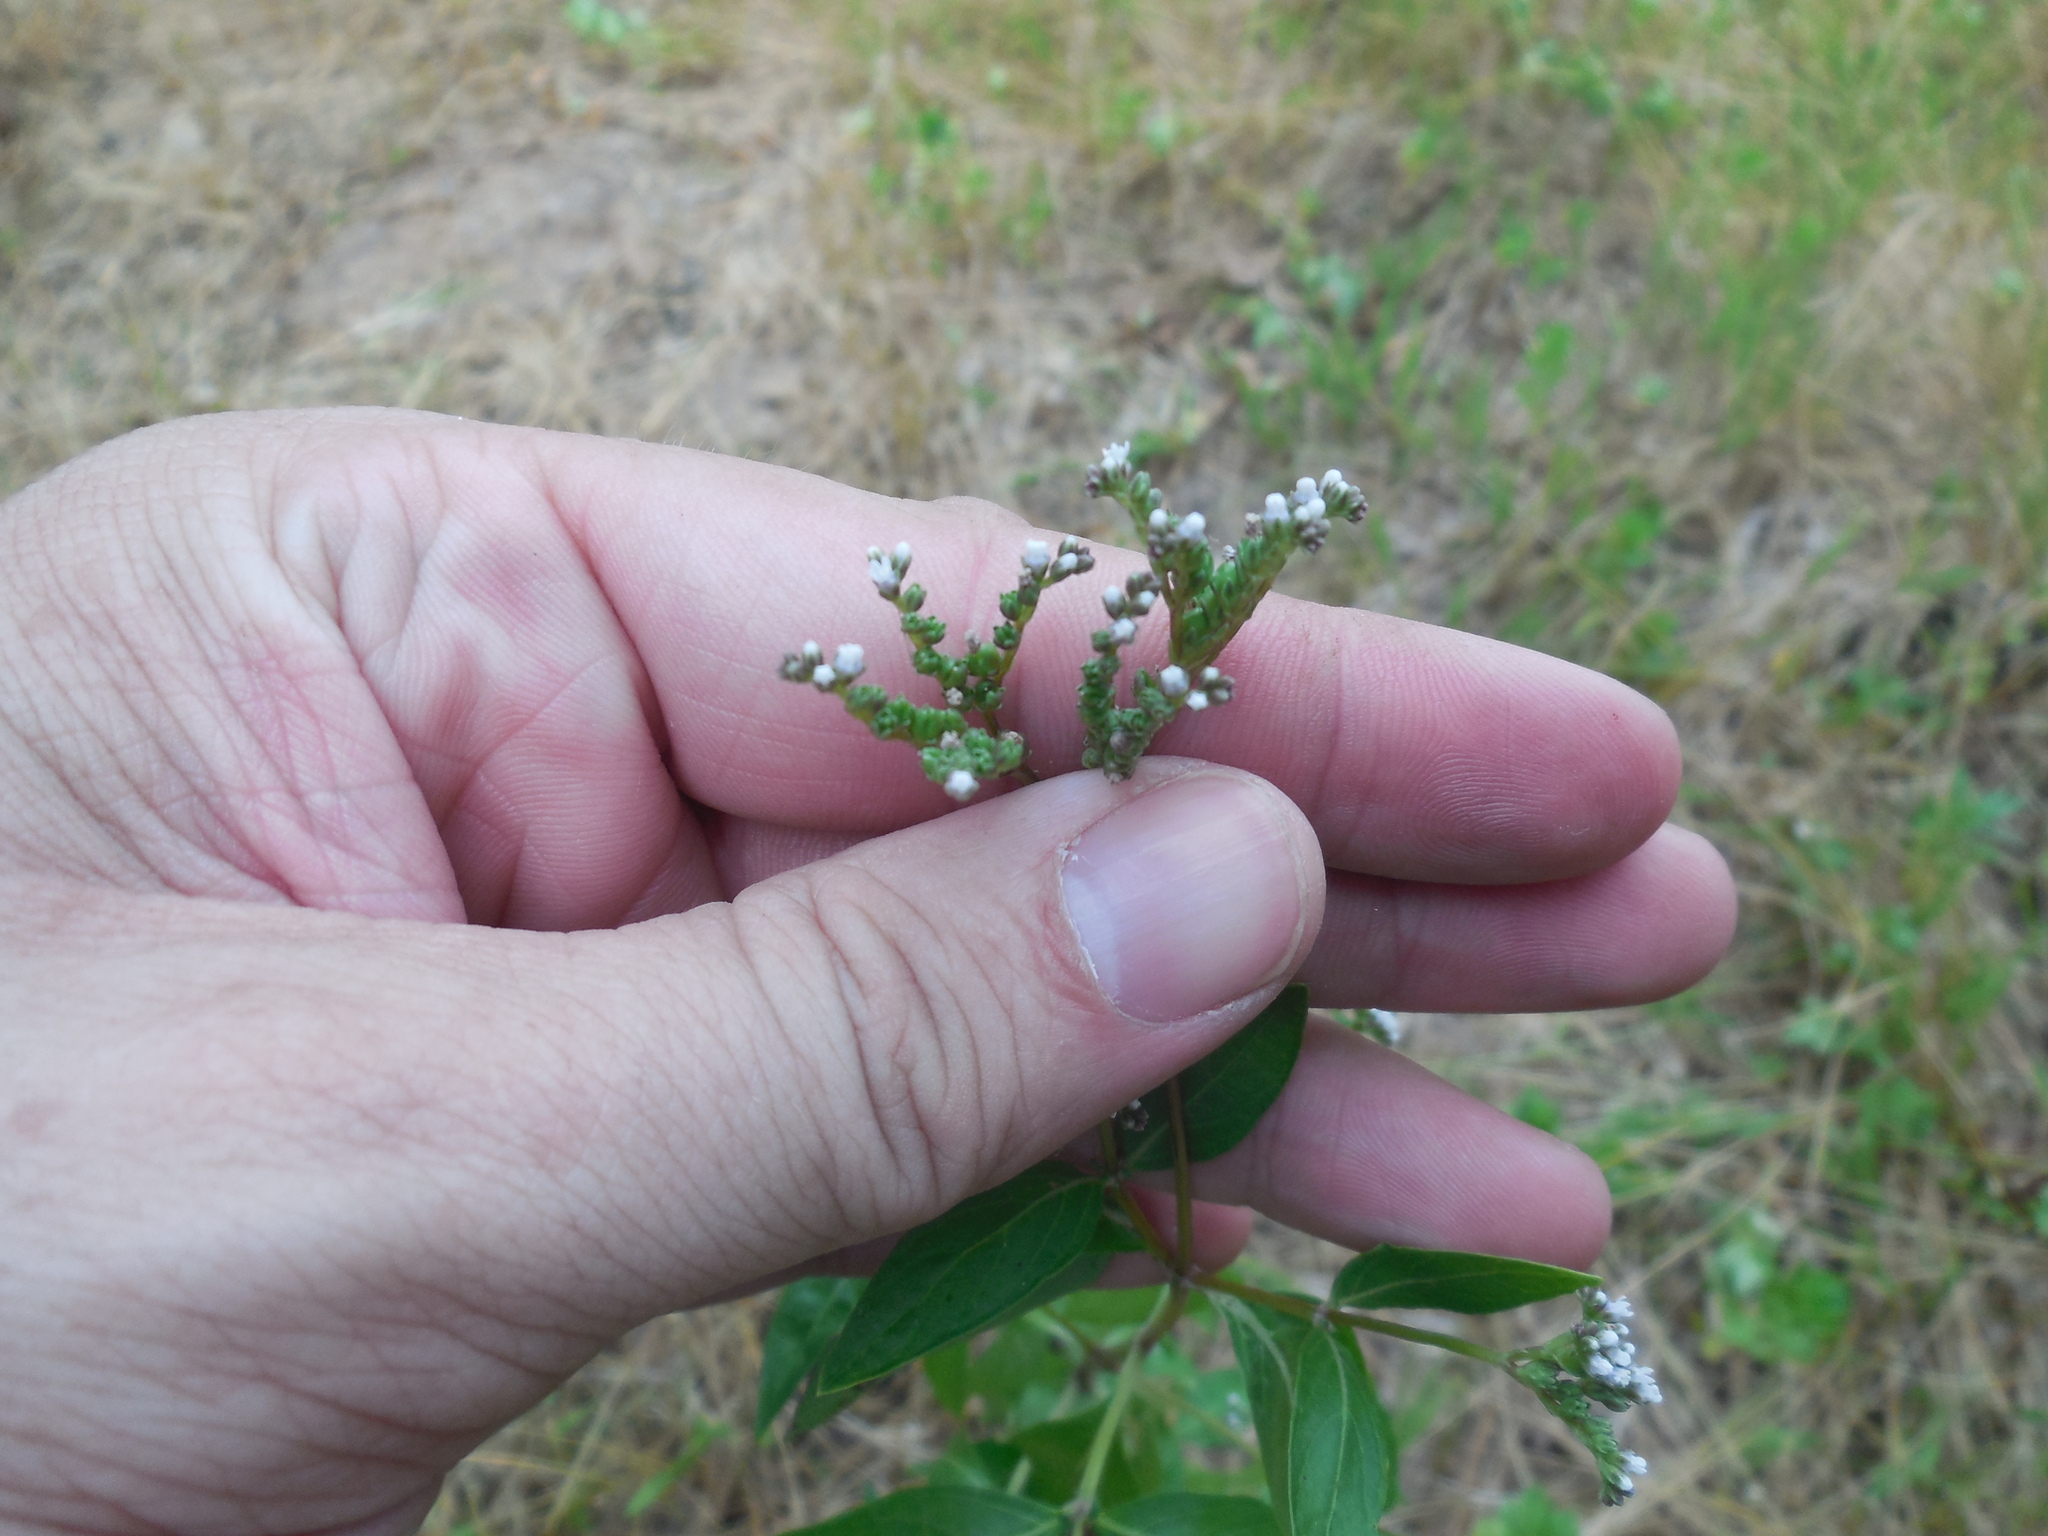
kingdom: Plantae
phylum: Tracheophyta
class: Magnoliopsida
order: Gentianales
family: Loganiaceae
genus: Mitreola
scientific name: Mitreola petiolata
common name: Lax hornpod
